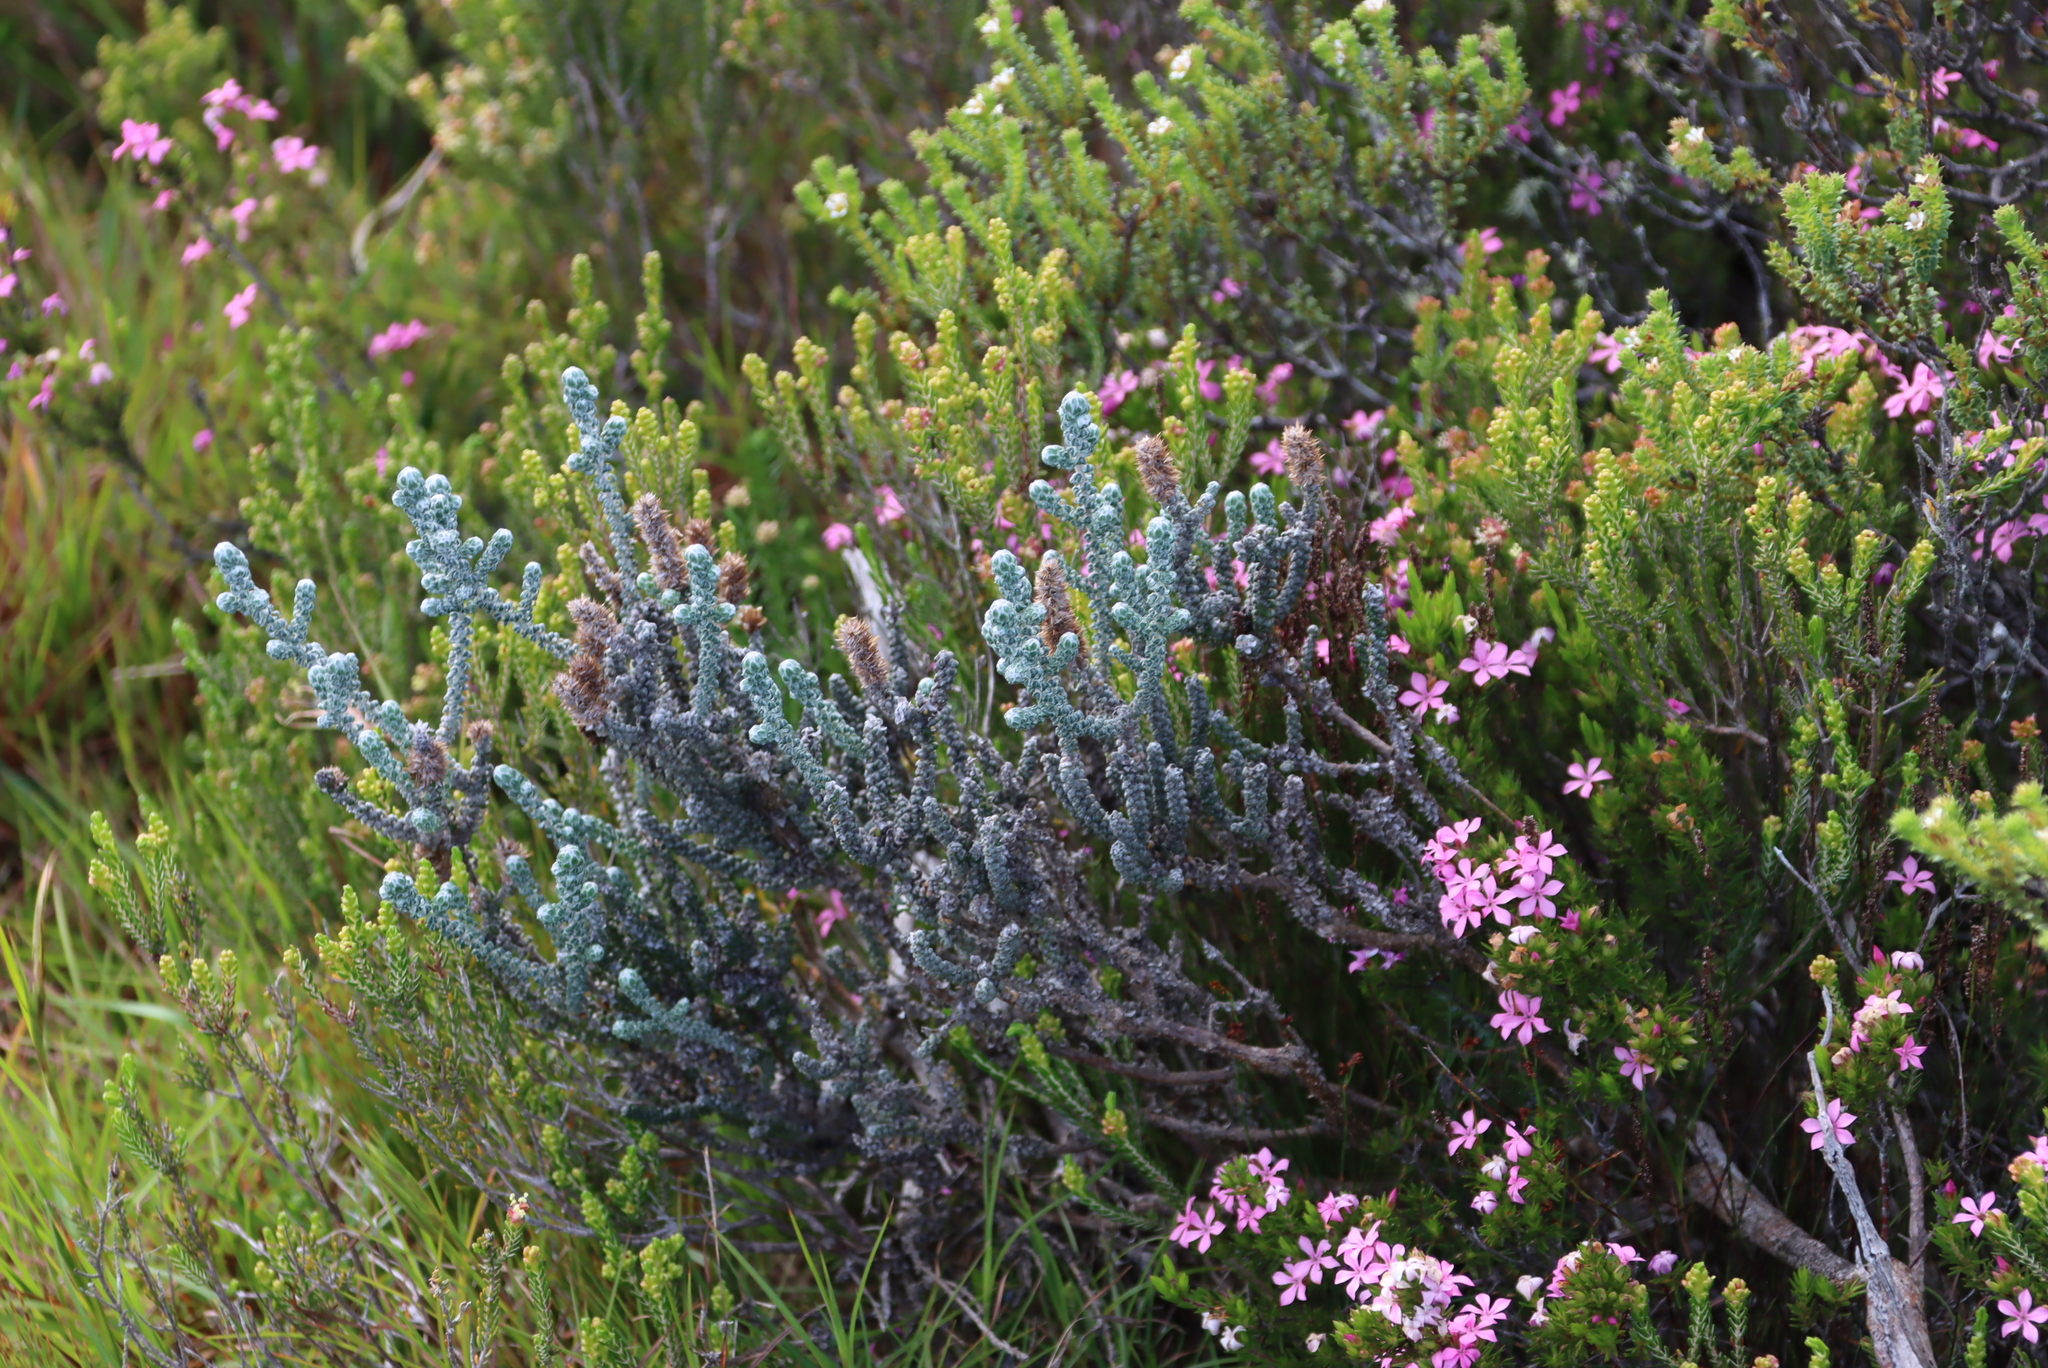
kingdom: Plantae
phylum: Tracheophyta
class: Magnoliopsida
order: Asterales
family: Asteraceae
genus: Stoebe
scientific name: Stoebe muirii
